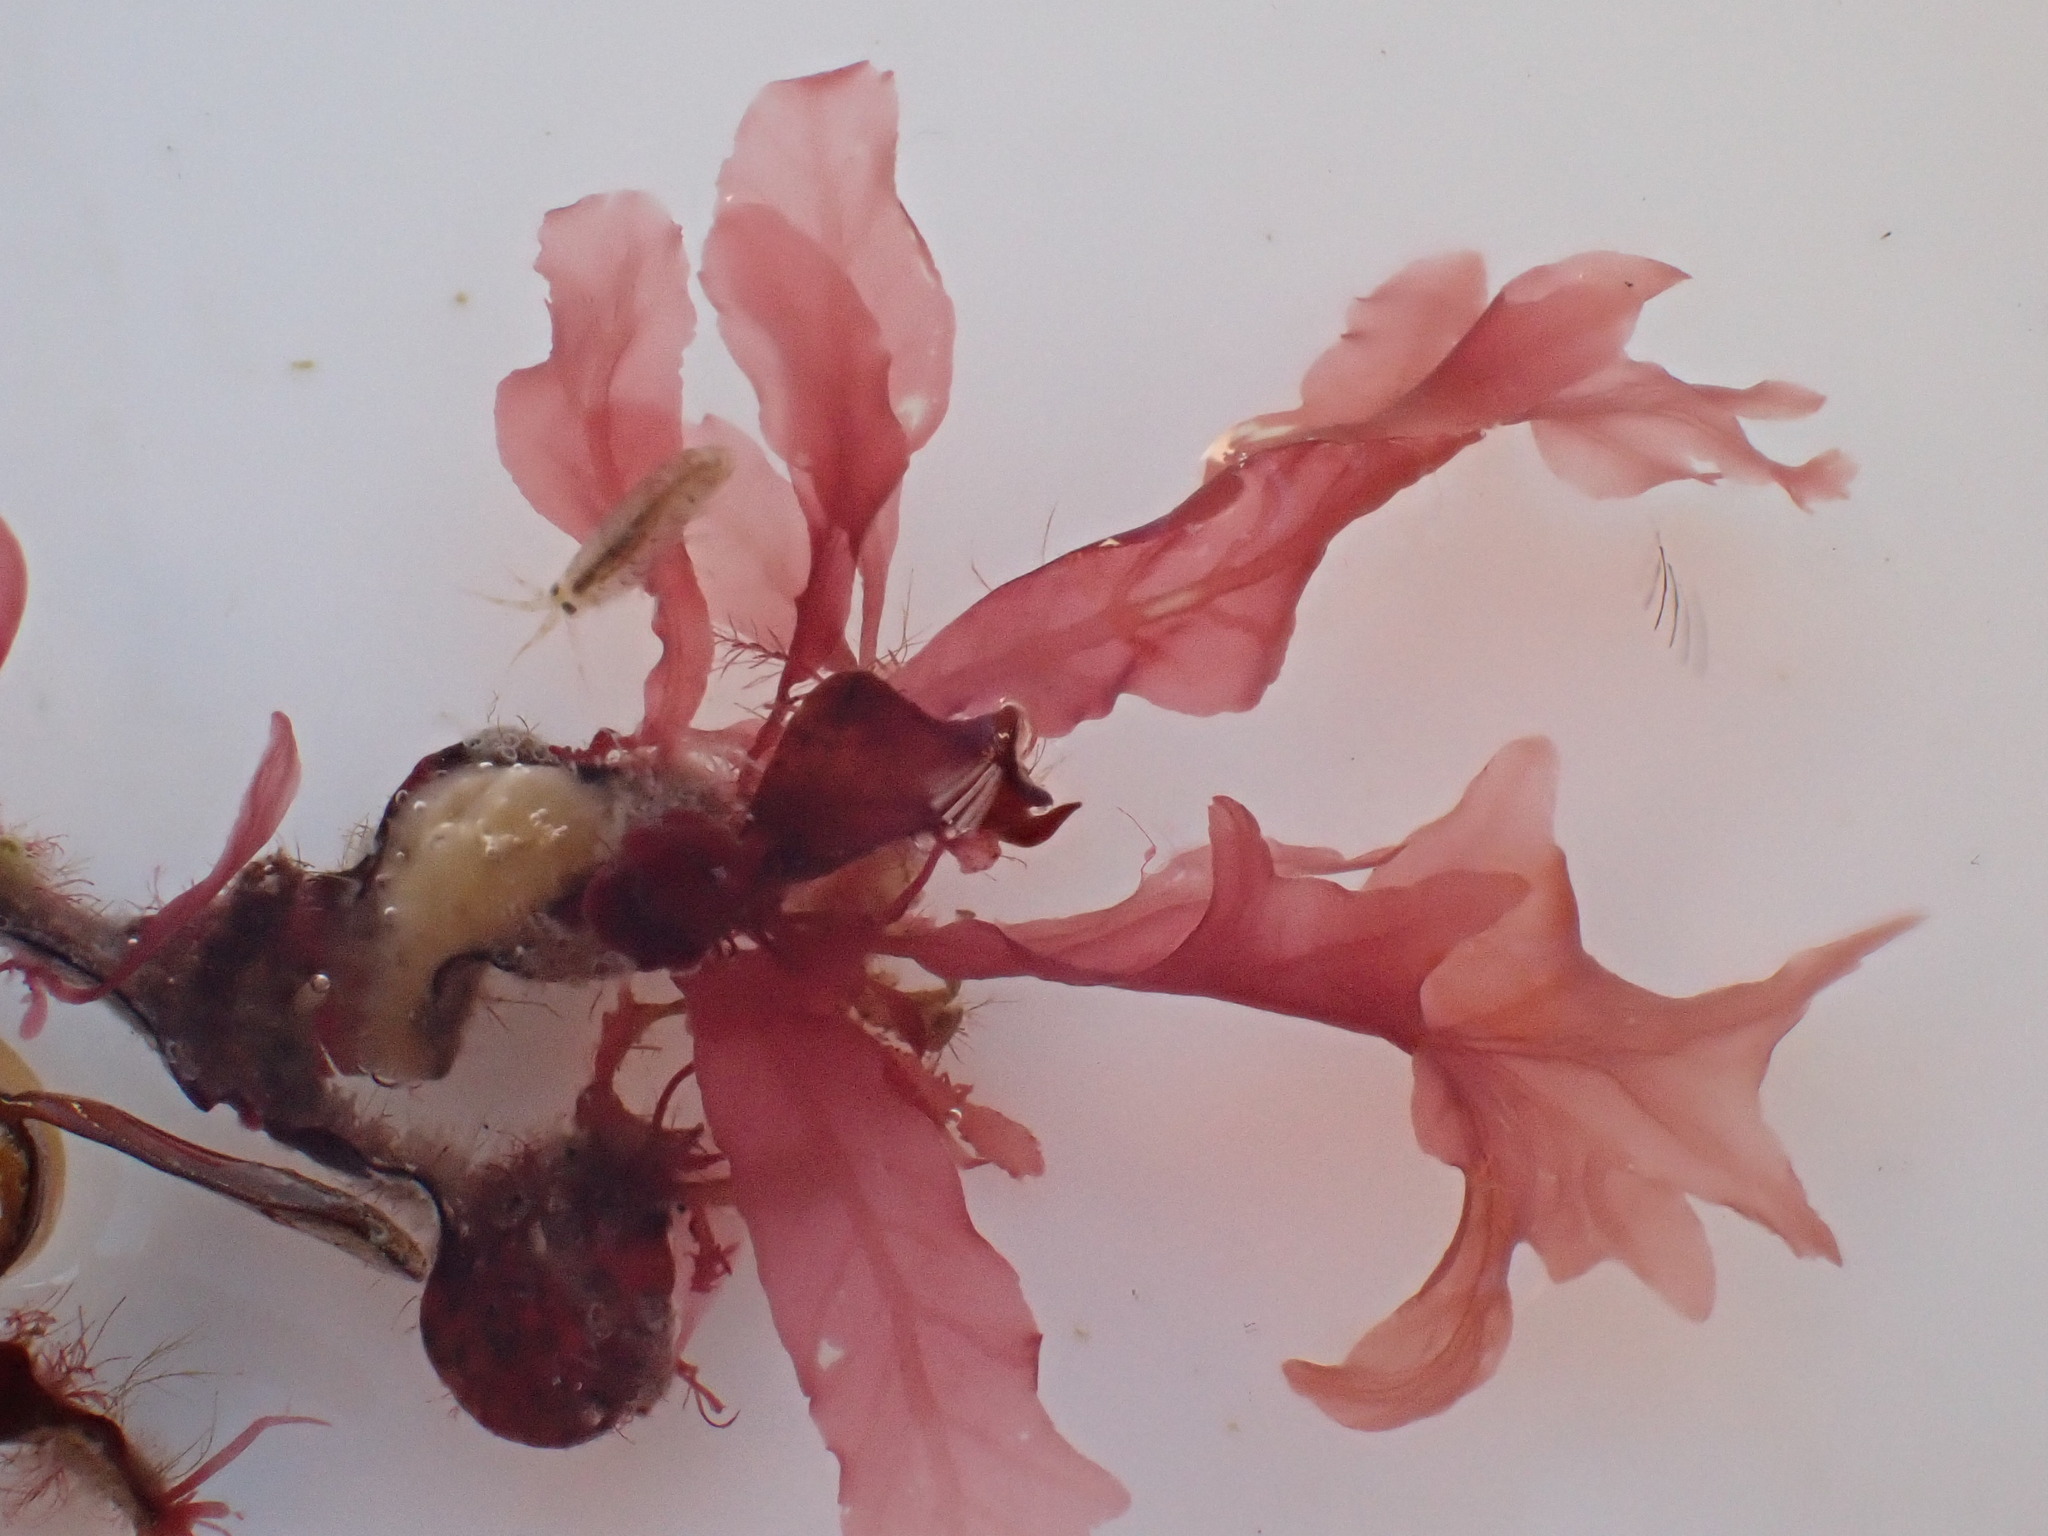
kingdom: Plantae
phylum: Rhodophyta
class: Florideophyceae
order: Ceramiales
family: Delesseriaceae
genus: Delesseria
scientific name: Delesseria sanguinea
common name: Sea beech
